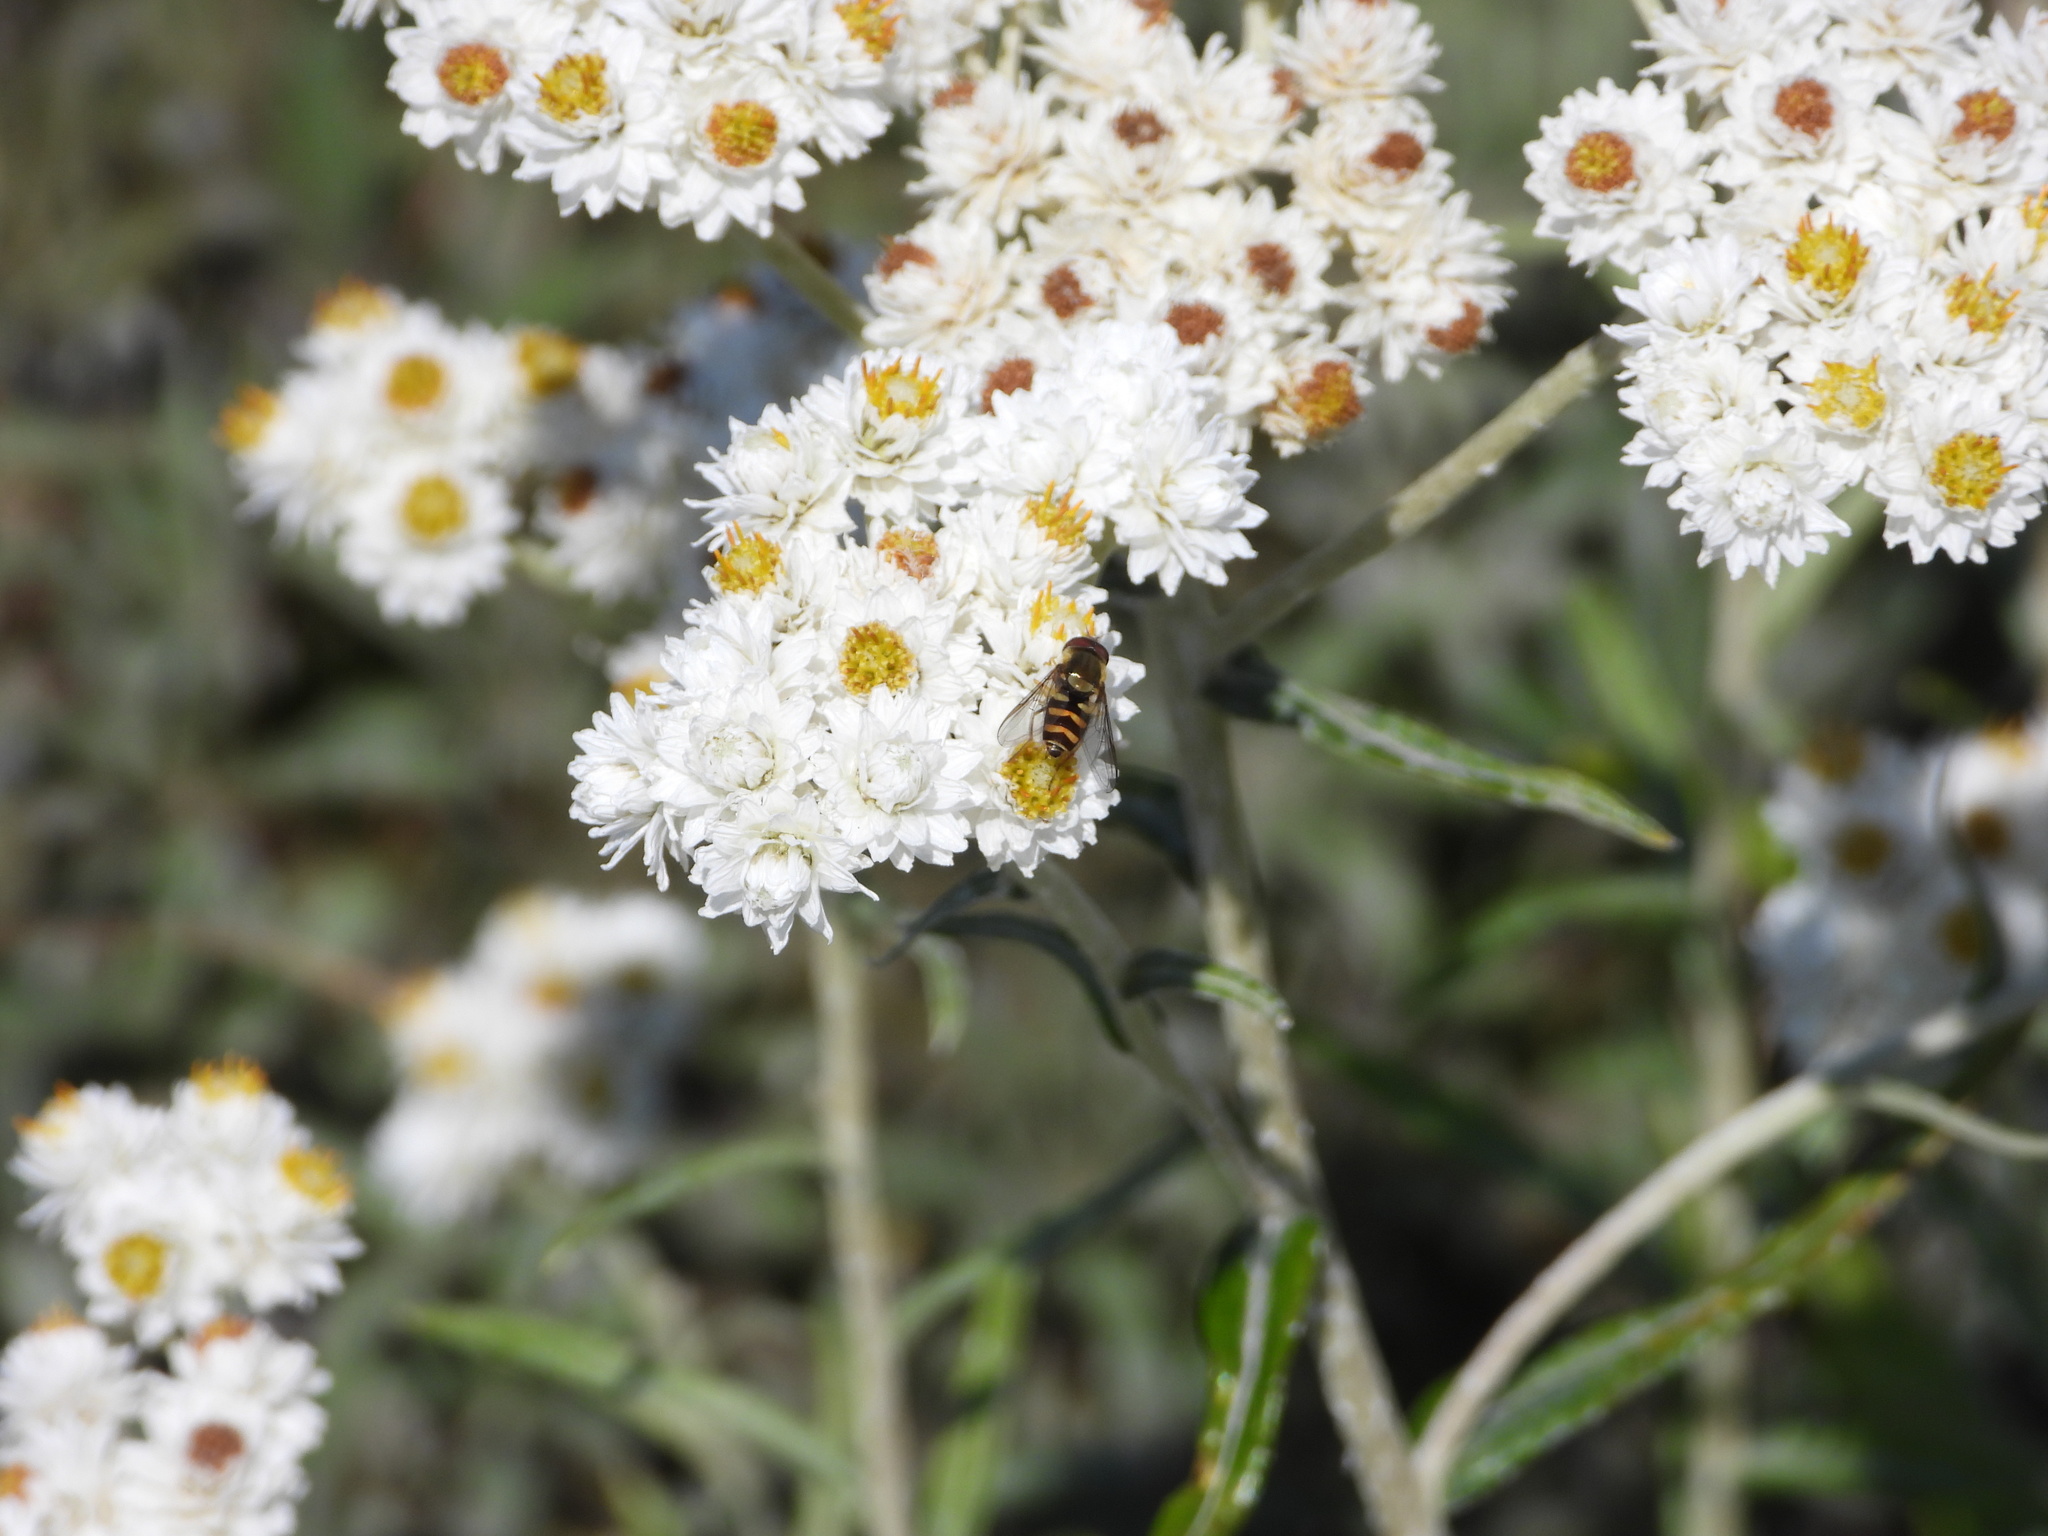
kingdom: Animalia
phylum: Arthropoda
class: Insecta
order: Diptera
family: Syrphidae
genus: Syrphus
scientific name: Syrphus opinator
